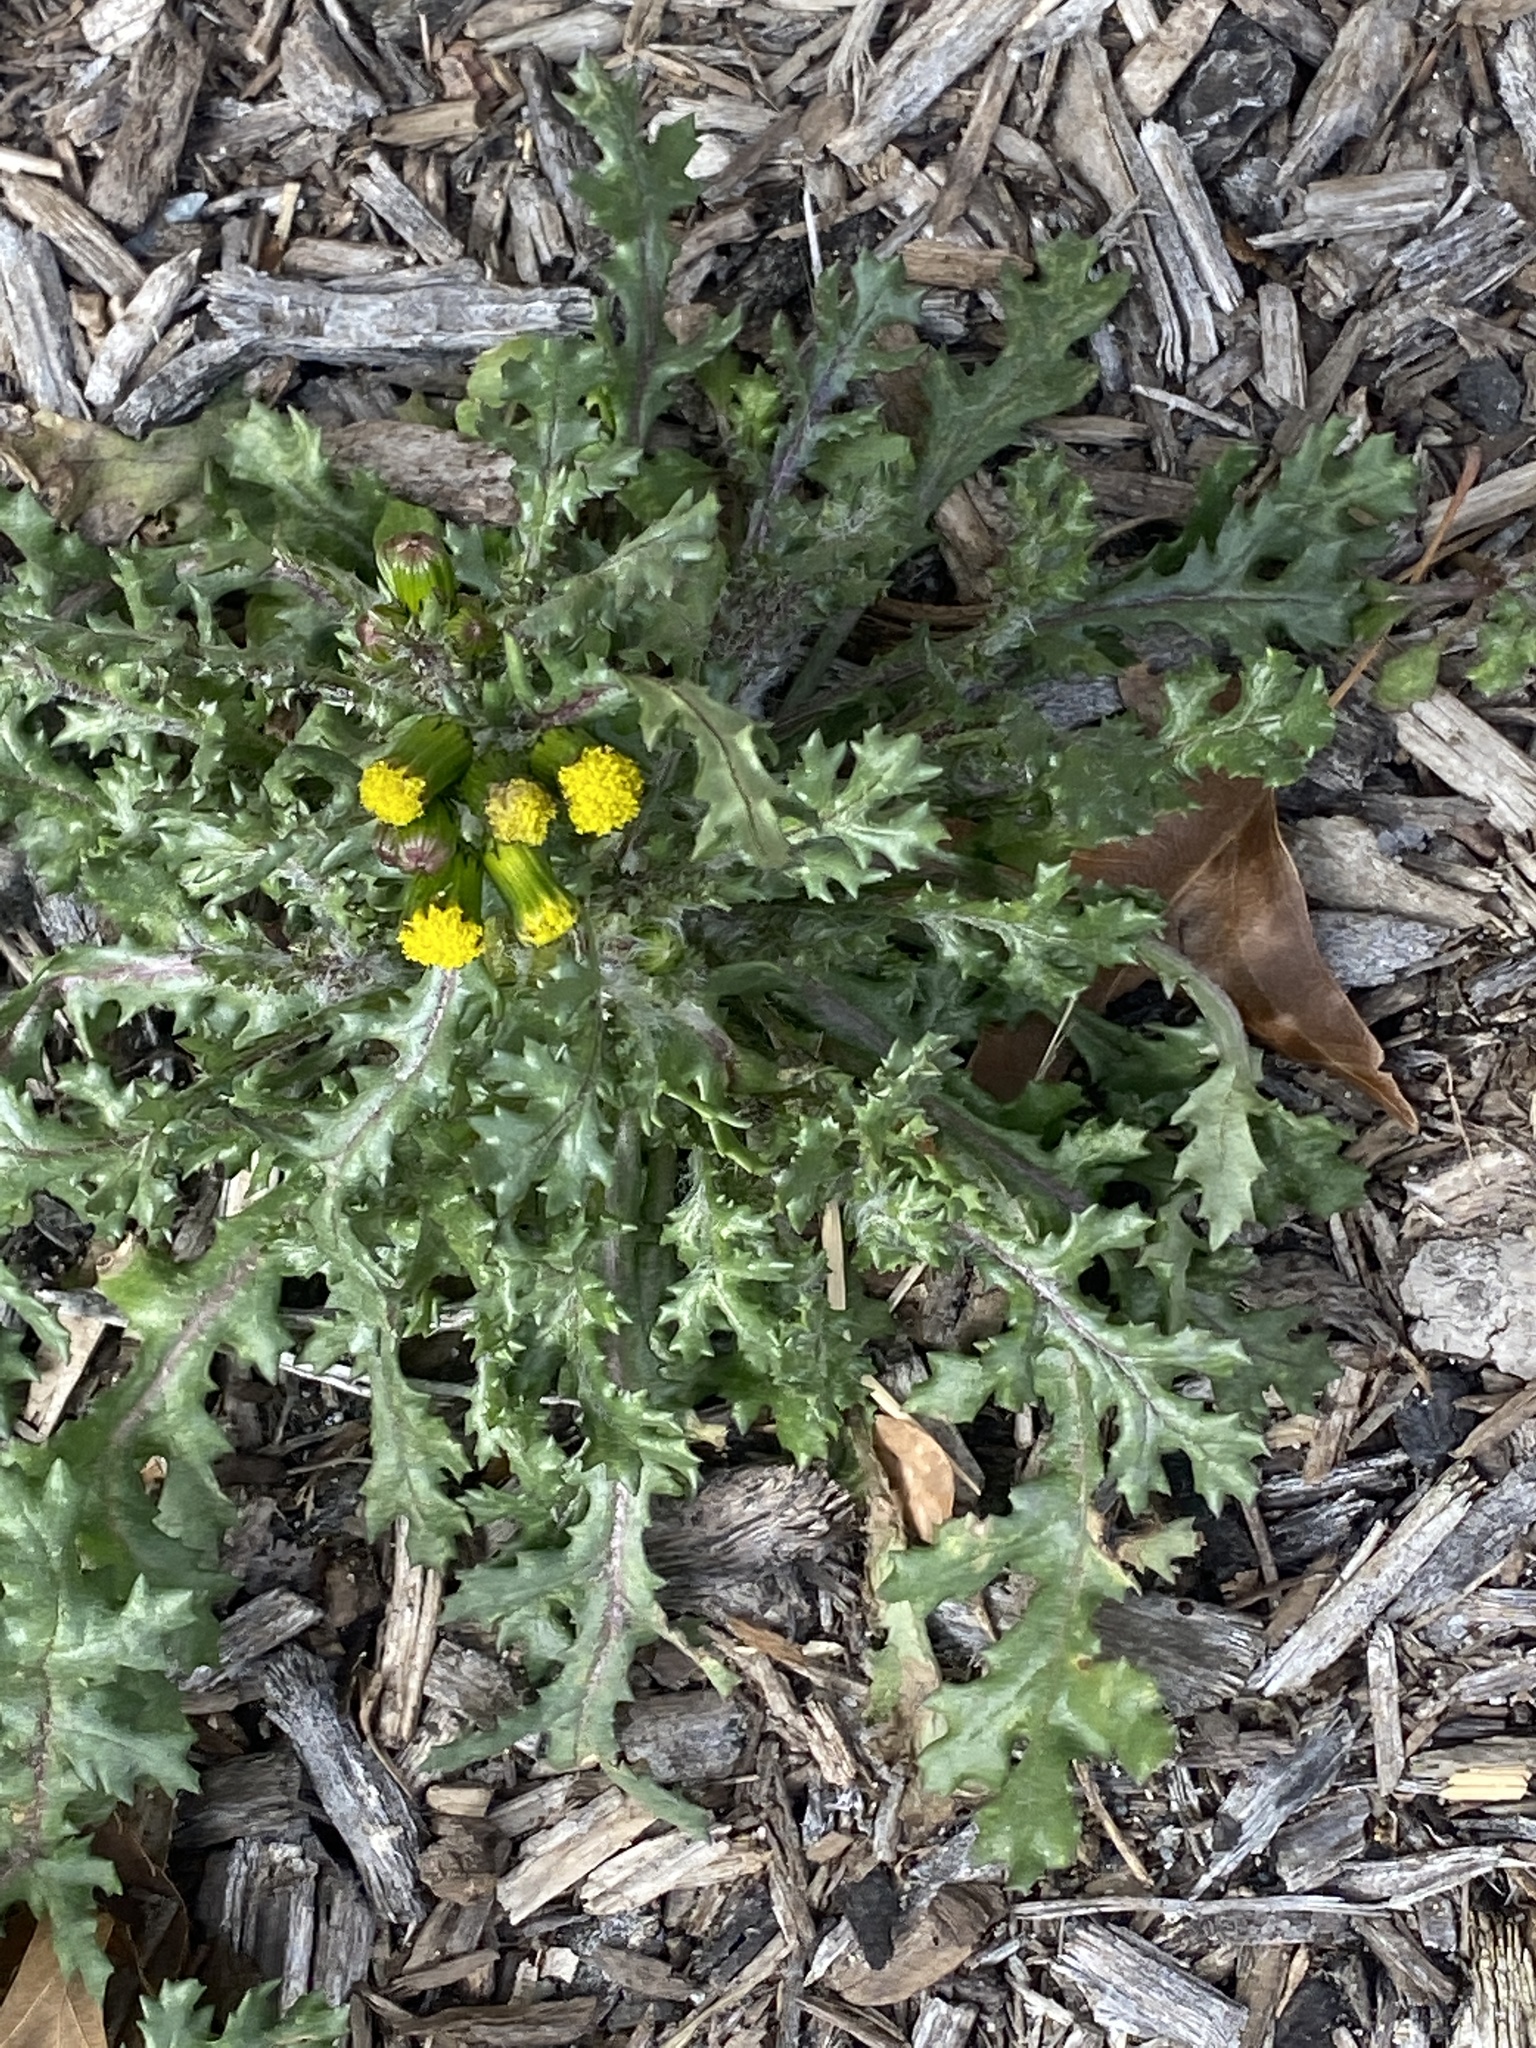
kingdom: Plantae
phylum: Tracheophyta
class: Magnoliopsida
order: Asterales
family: Asteraceae
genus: Senecio
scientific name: Senecio vulgaris
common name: Old-man-in-the-spring
